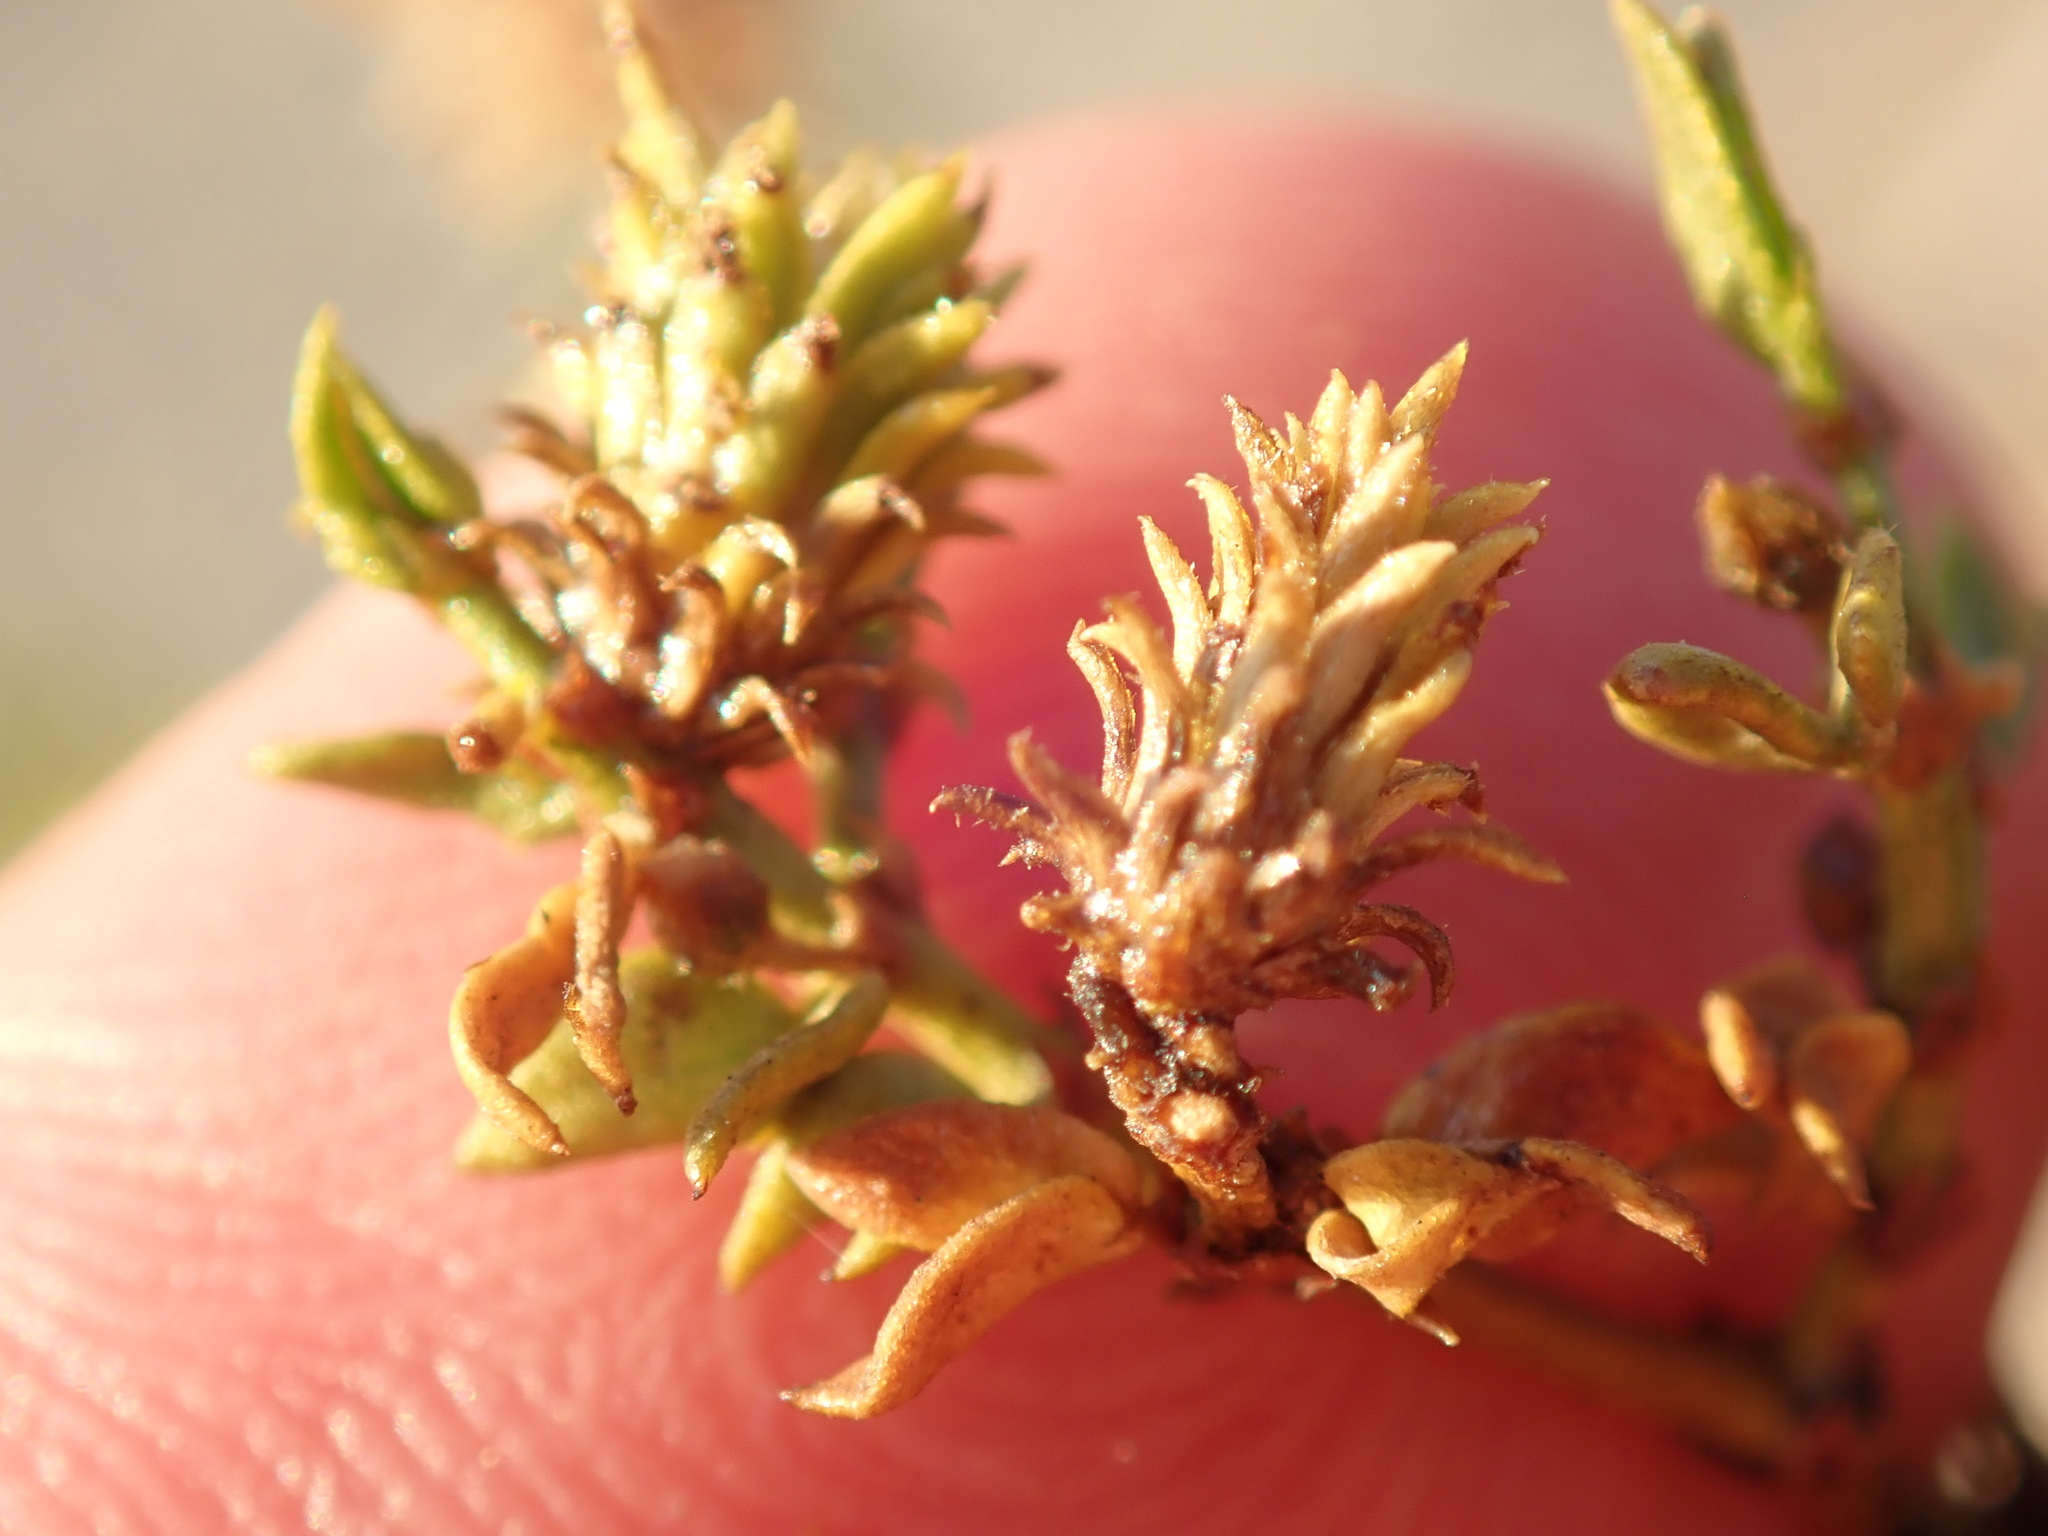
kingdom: Animalia
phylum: Arthropoda
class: Insecta
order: Diptera
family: Cecidomyiidae
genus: Asphondylia
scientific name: Asphondylia rosetta
